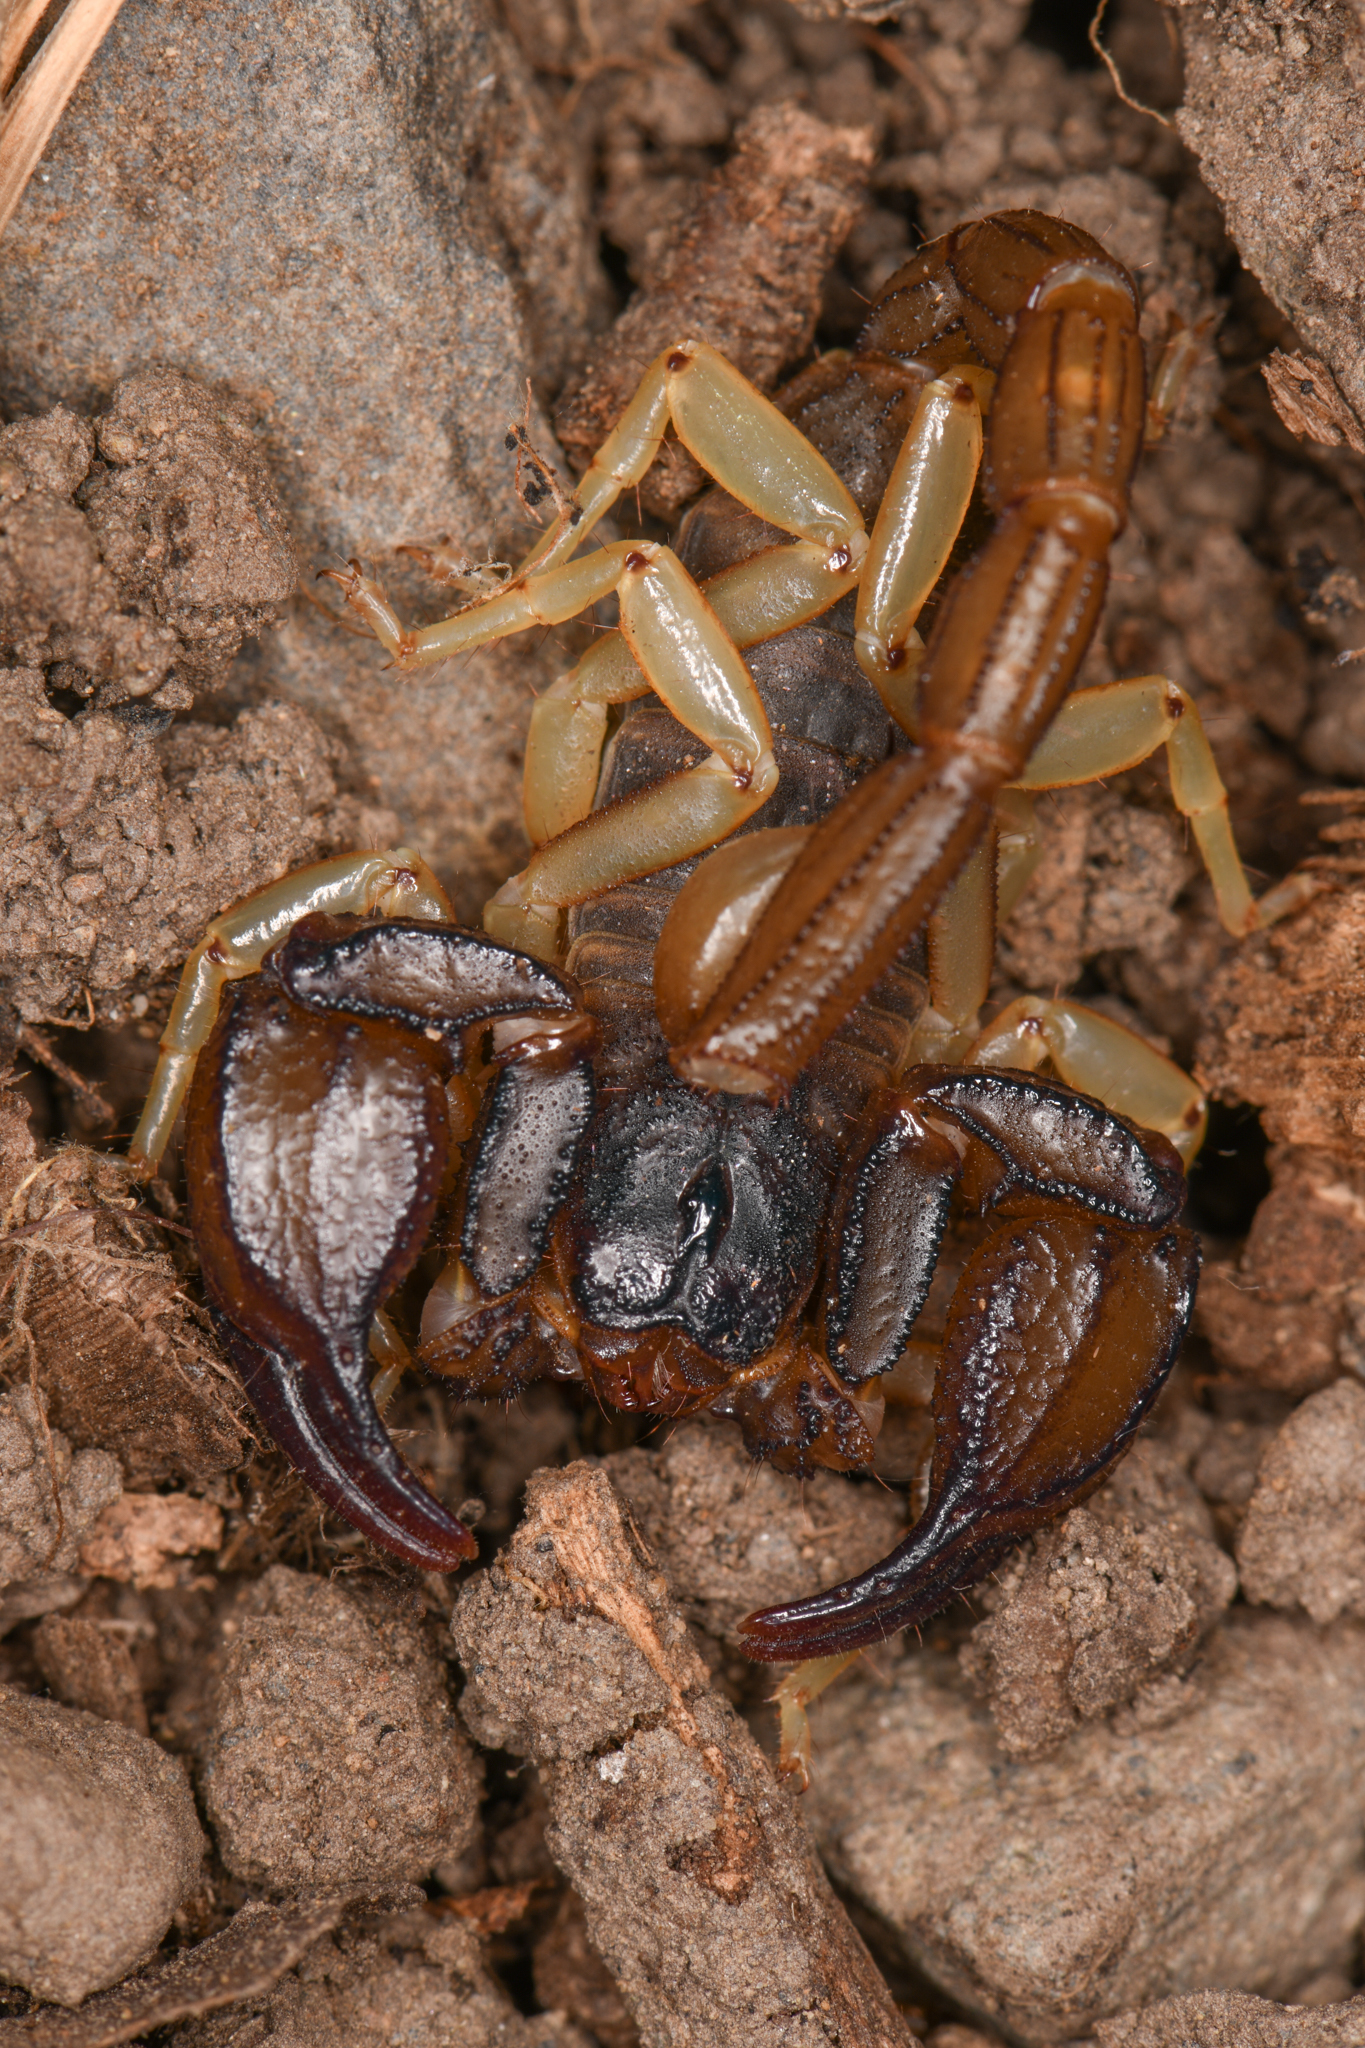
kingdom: Animalia
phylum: Arthropoda
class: Arachnida
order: Scorpiones
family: Chactidae
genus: Uroctonus
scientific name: Uroctonus mordax
